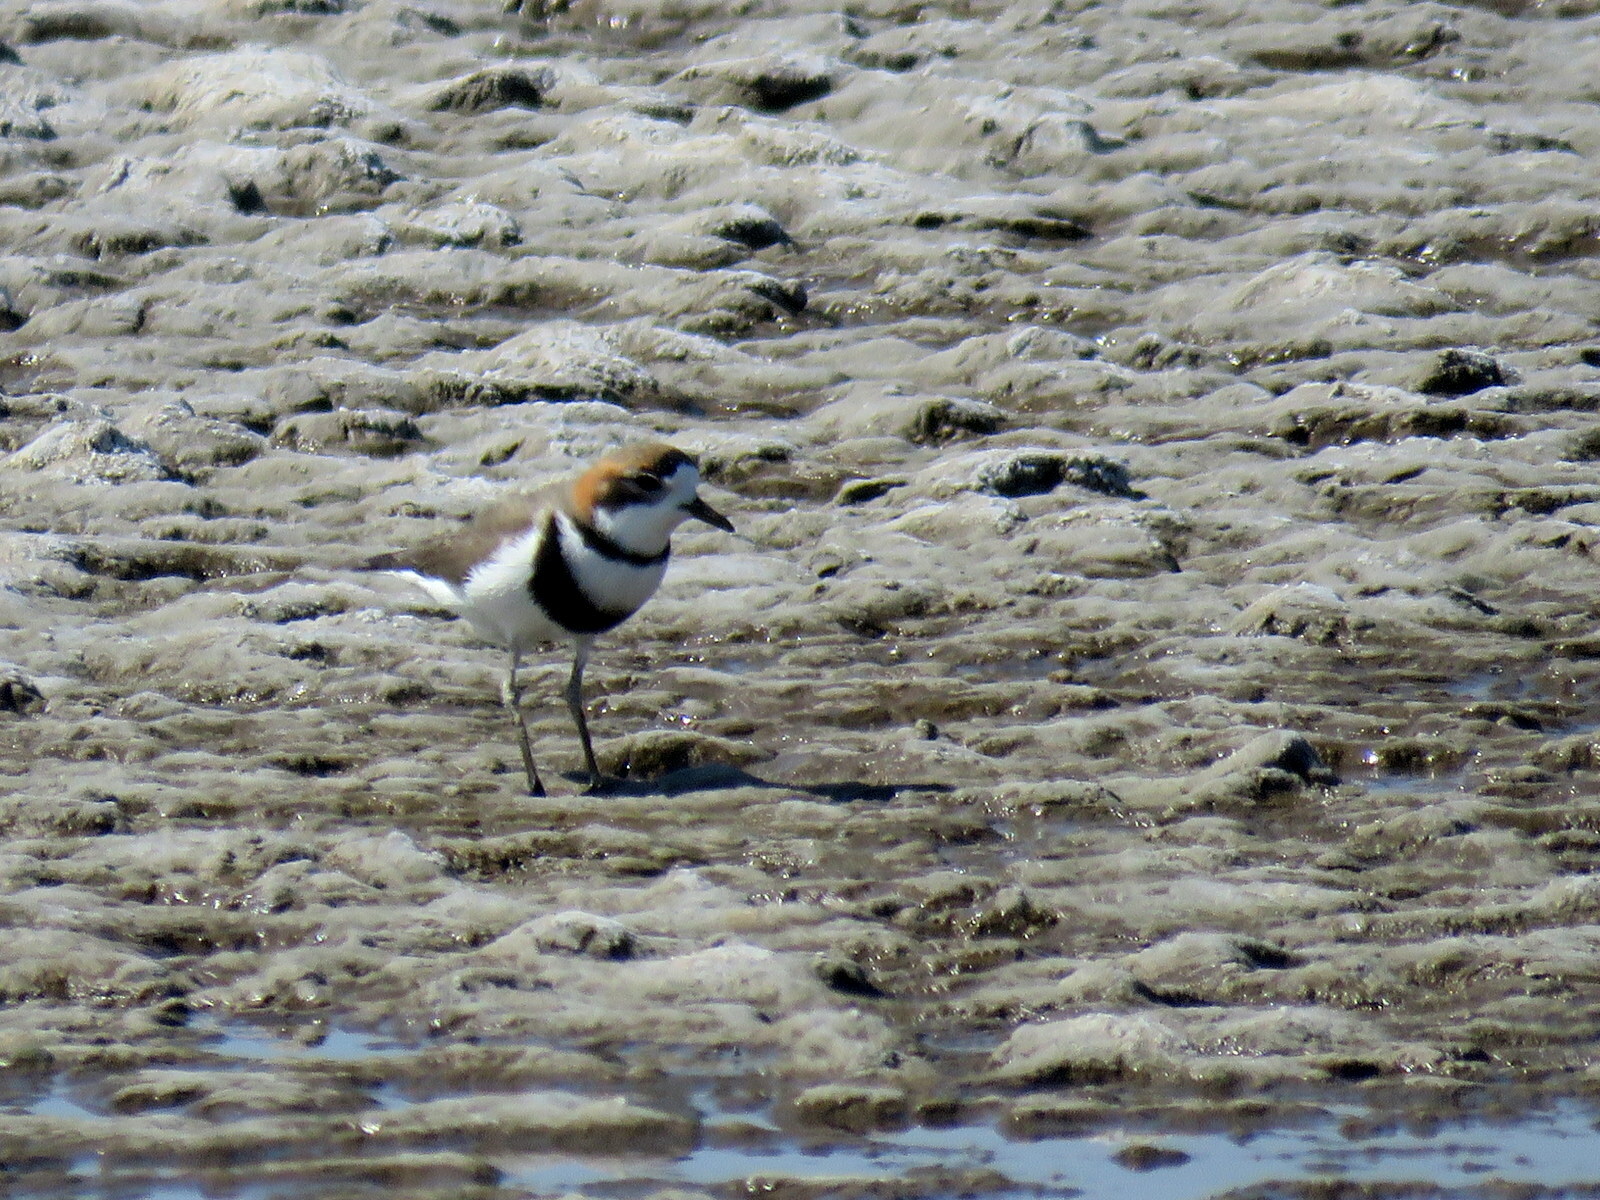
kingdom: Animalia
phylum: Chordata
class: Aves
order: Charadriiformes
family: Charadriidae
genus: Anarhynchus
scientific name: Anarhynchus
